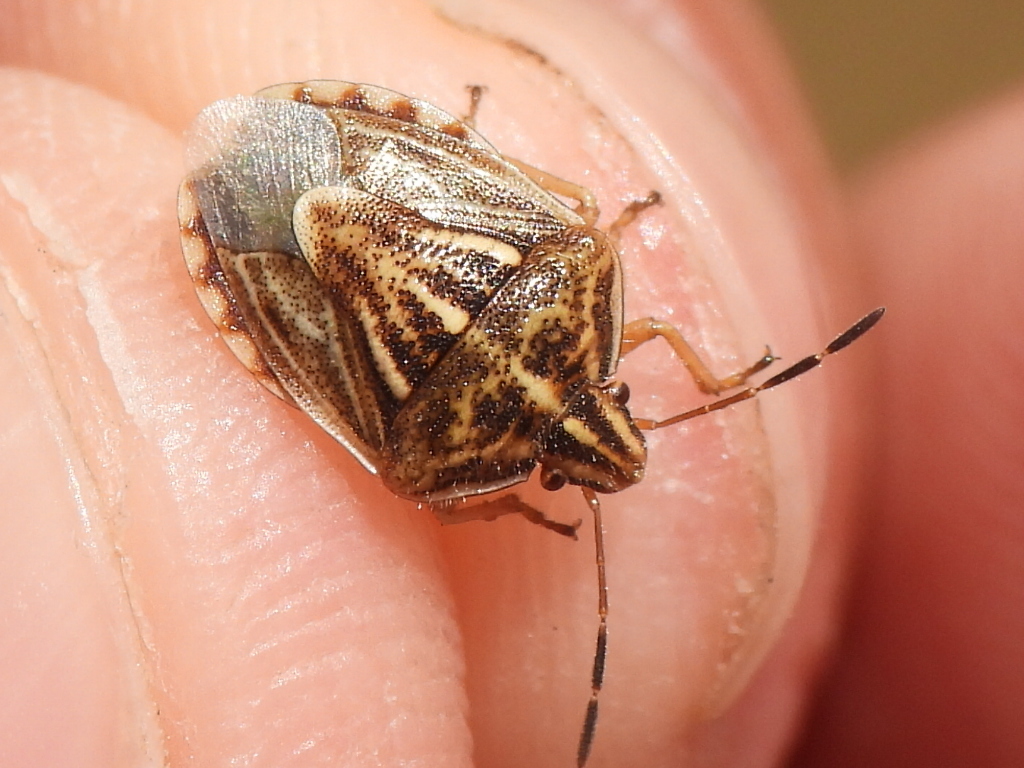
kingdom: Animalia
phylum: Arthropoda
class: Insecta
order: Hemiptera
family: Pentatomidae
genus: Trichopepla
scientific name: Trichopepla semivittata
